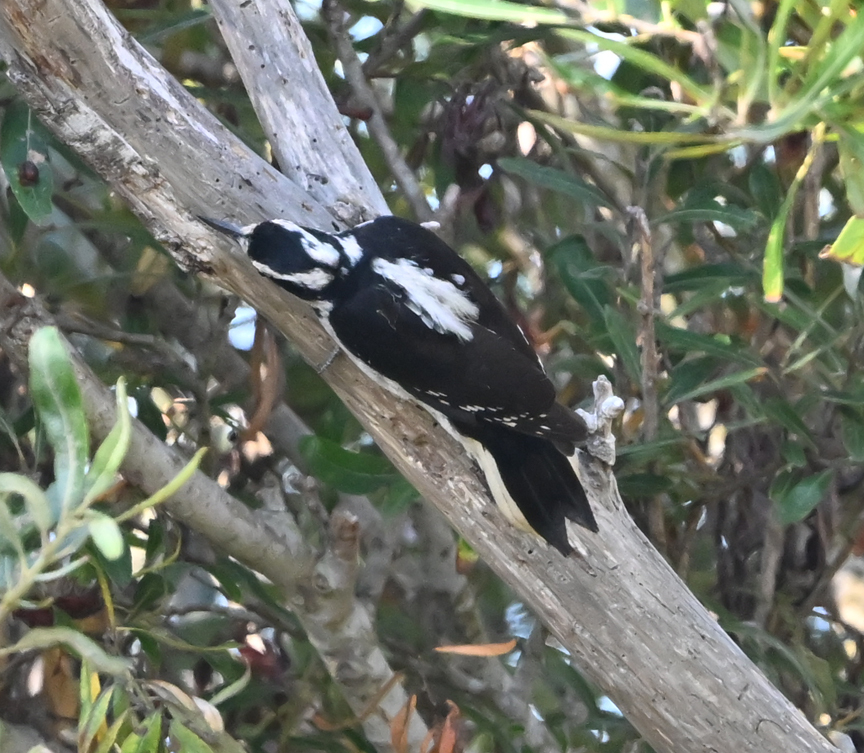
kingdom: Animalia
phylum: Chordata
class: Aves
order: Piciformes
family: Picidae
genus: Leuconotopicus
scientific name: Leuconotopicus villosus
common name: Hairy woodpecker
